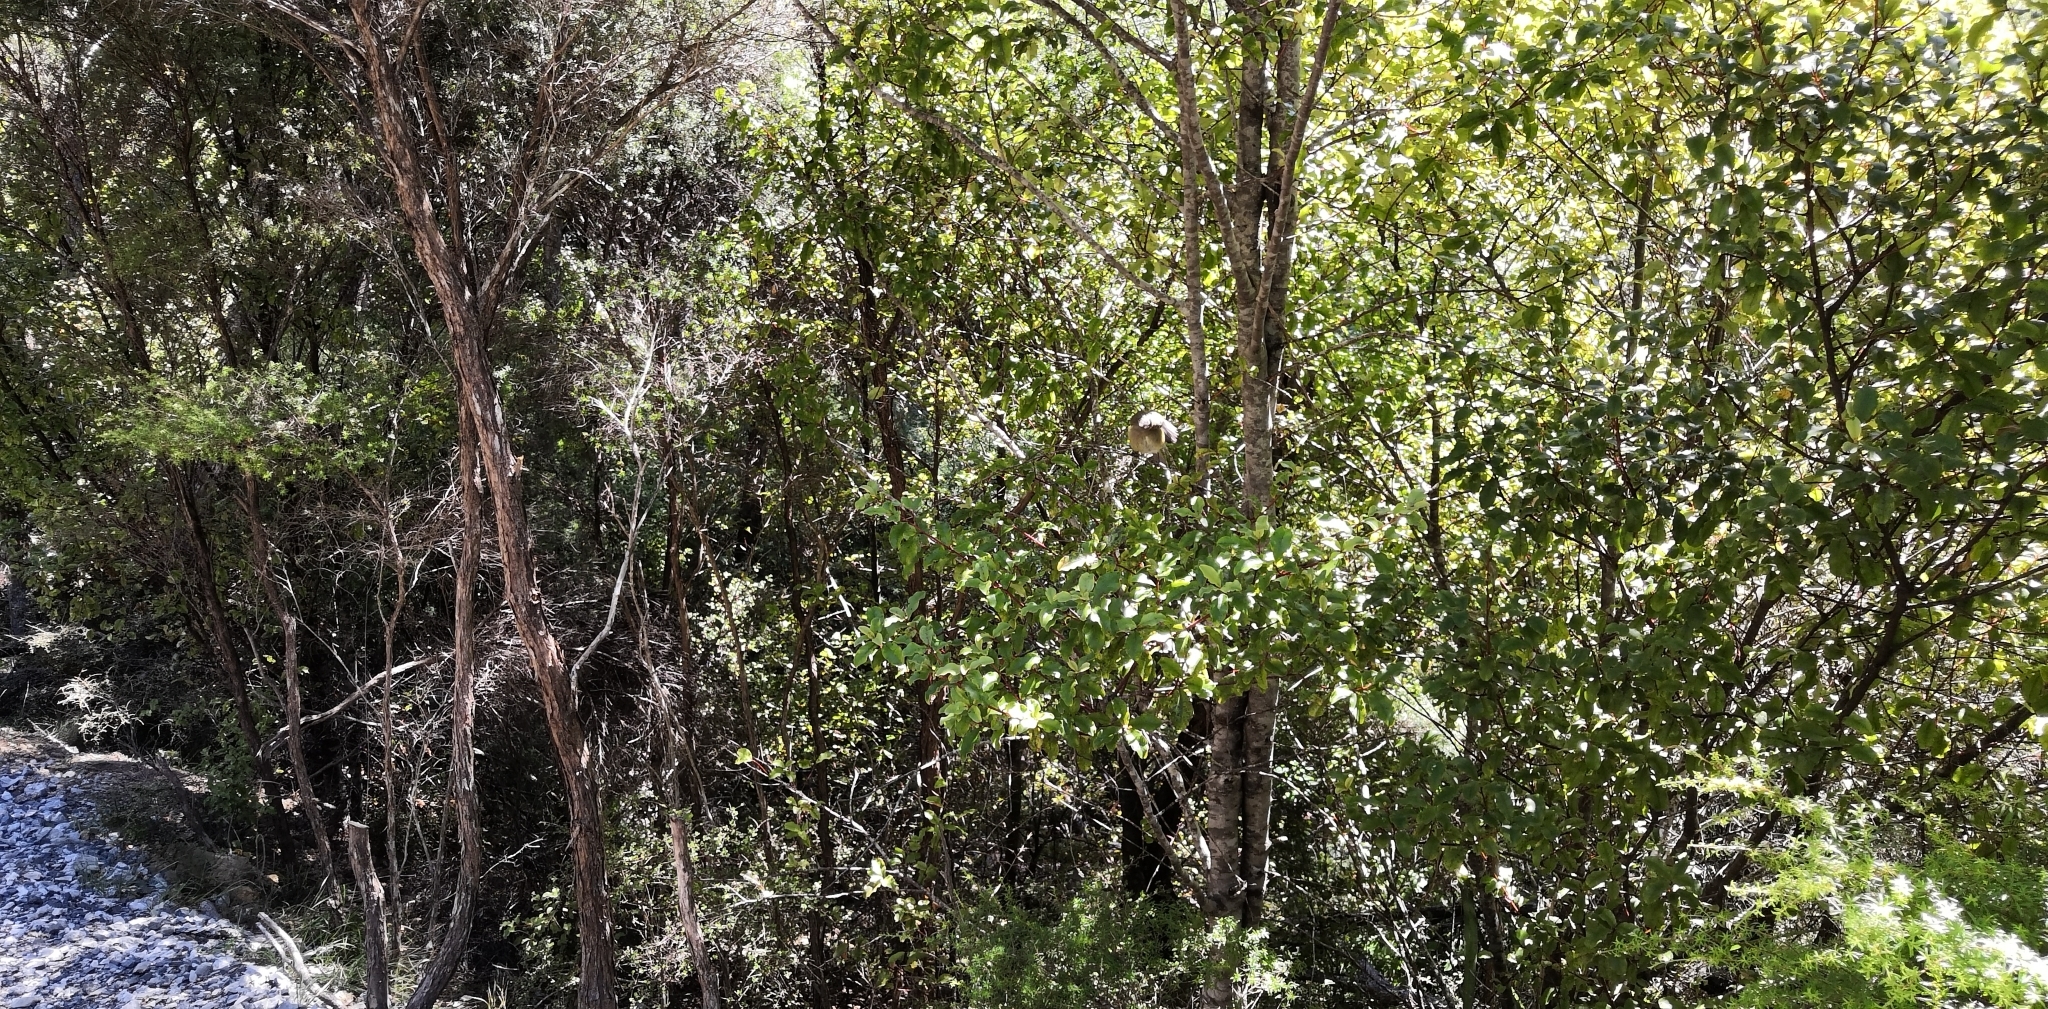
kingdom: Animalia
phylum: Chordata
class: Aves
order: Passeriformes
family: Meliphagidae
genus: Anthornis
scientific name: Anthornis melanura
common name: New zealand bellbird
